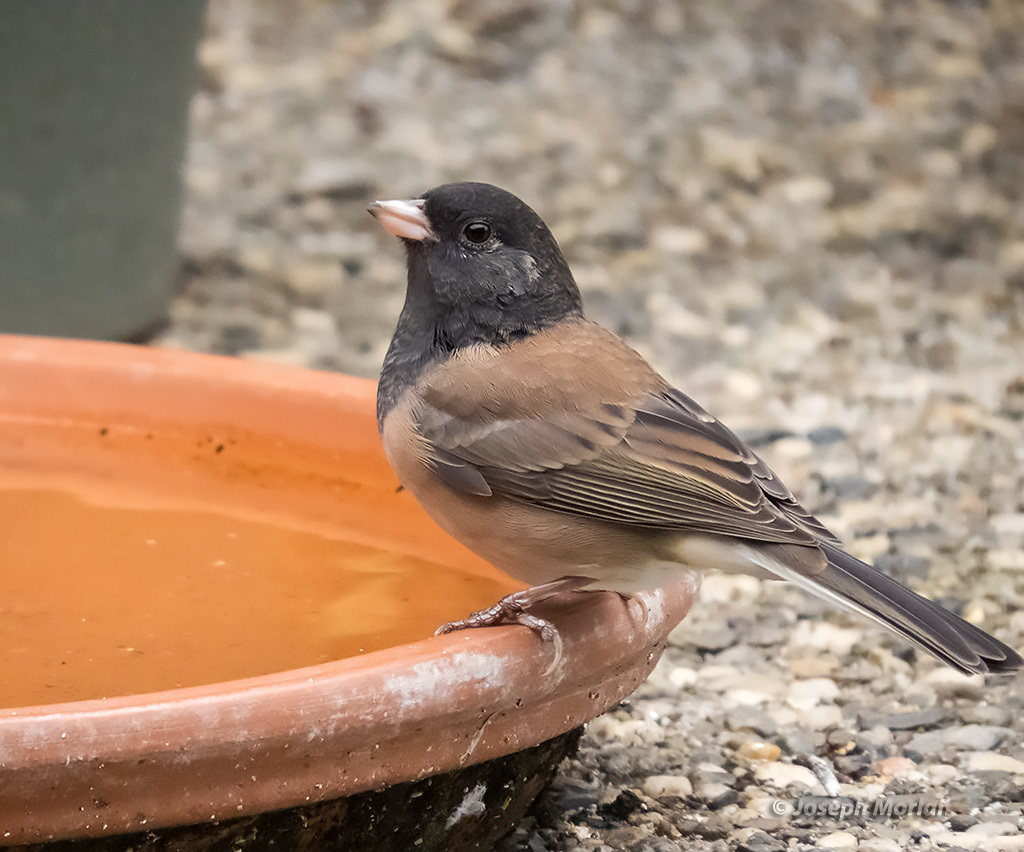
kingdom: Animalia
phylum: Chordata
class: Aves
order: Passeriformes
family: Passerellidae
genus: Junco
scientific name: Junco hyemalis
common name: Dark-eyed junco
